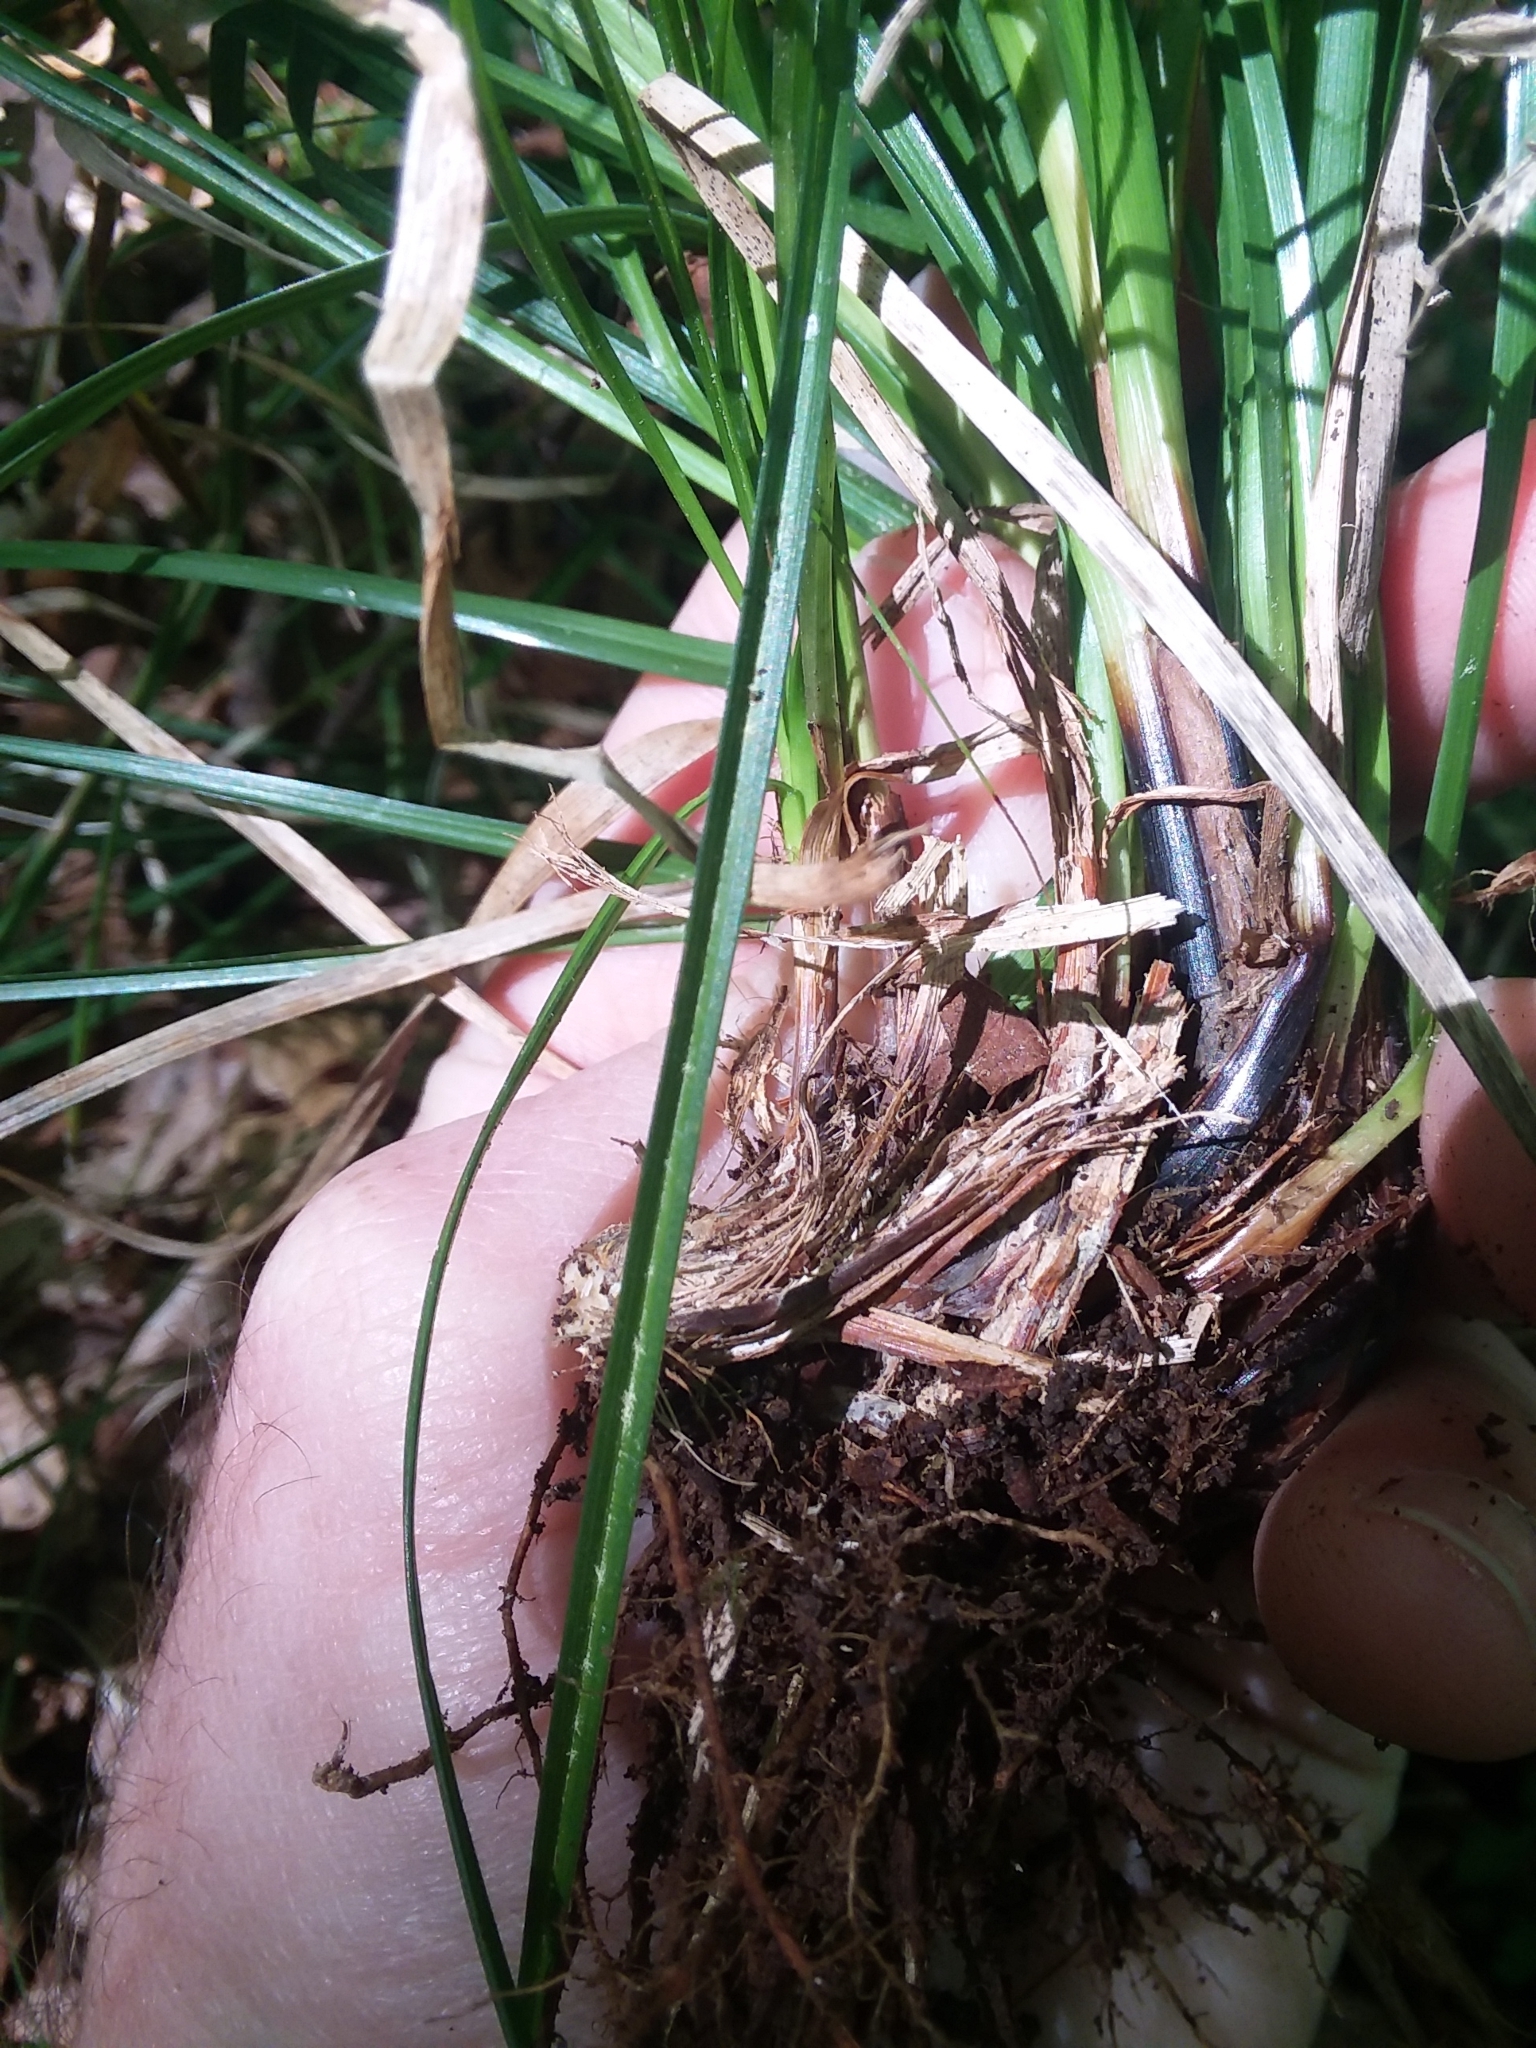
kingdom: Plantae
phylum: Tracheophyta
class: Liliopsida
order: Poales
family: Cyperaceae
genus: Carex
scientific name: Carex cherokeensis
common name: Cherokee sedge
